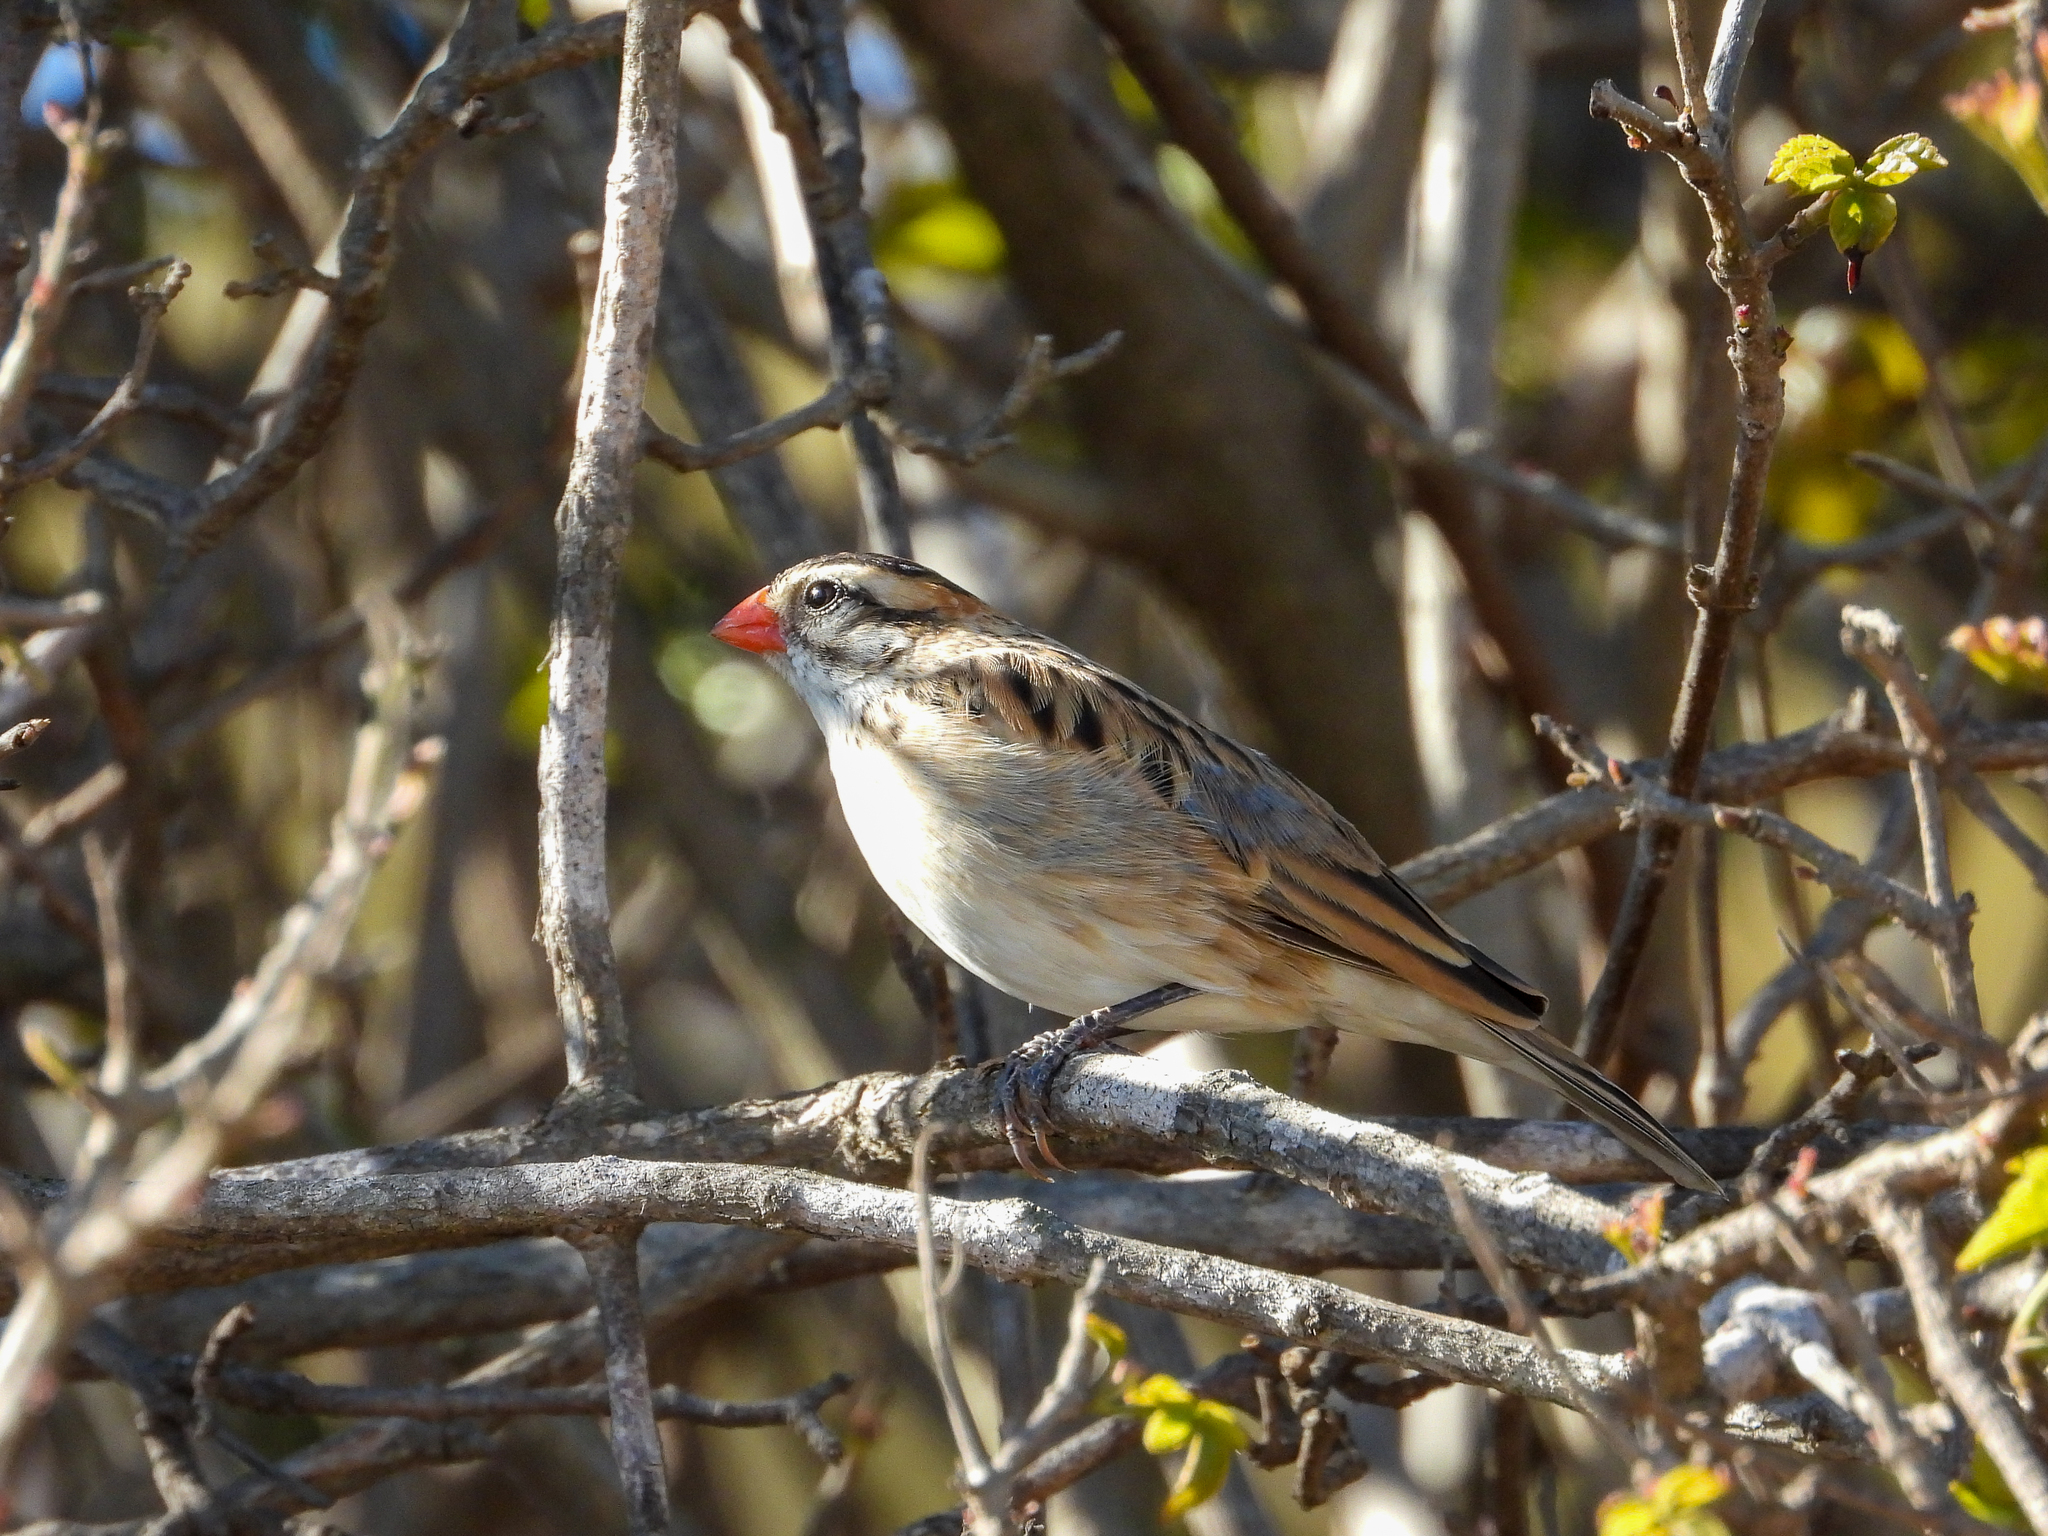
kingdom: Animalia
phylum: Chordata
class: Aves
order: Passeriformes
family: Viduidae
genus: Vidua
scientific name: Vidua macroura
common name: Pin-tailed whydah
